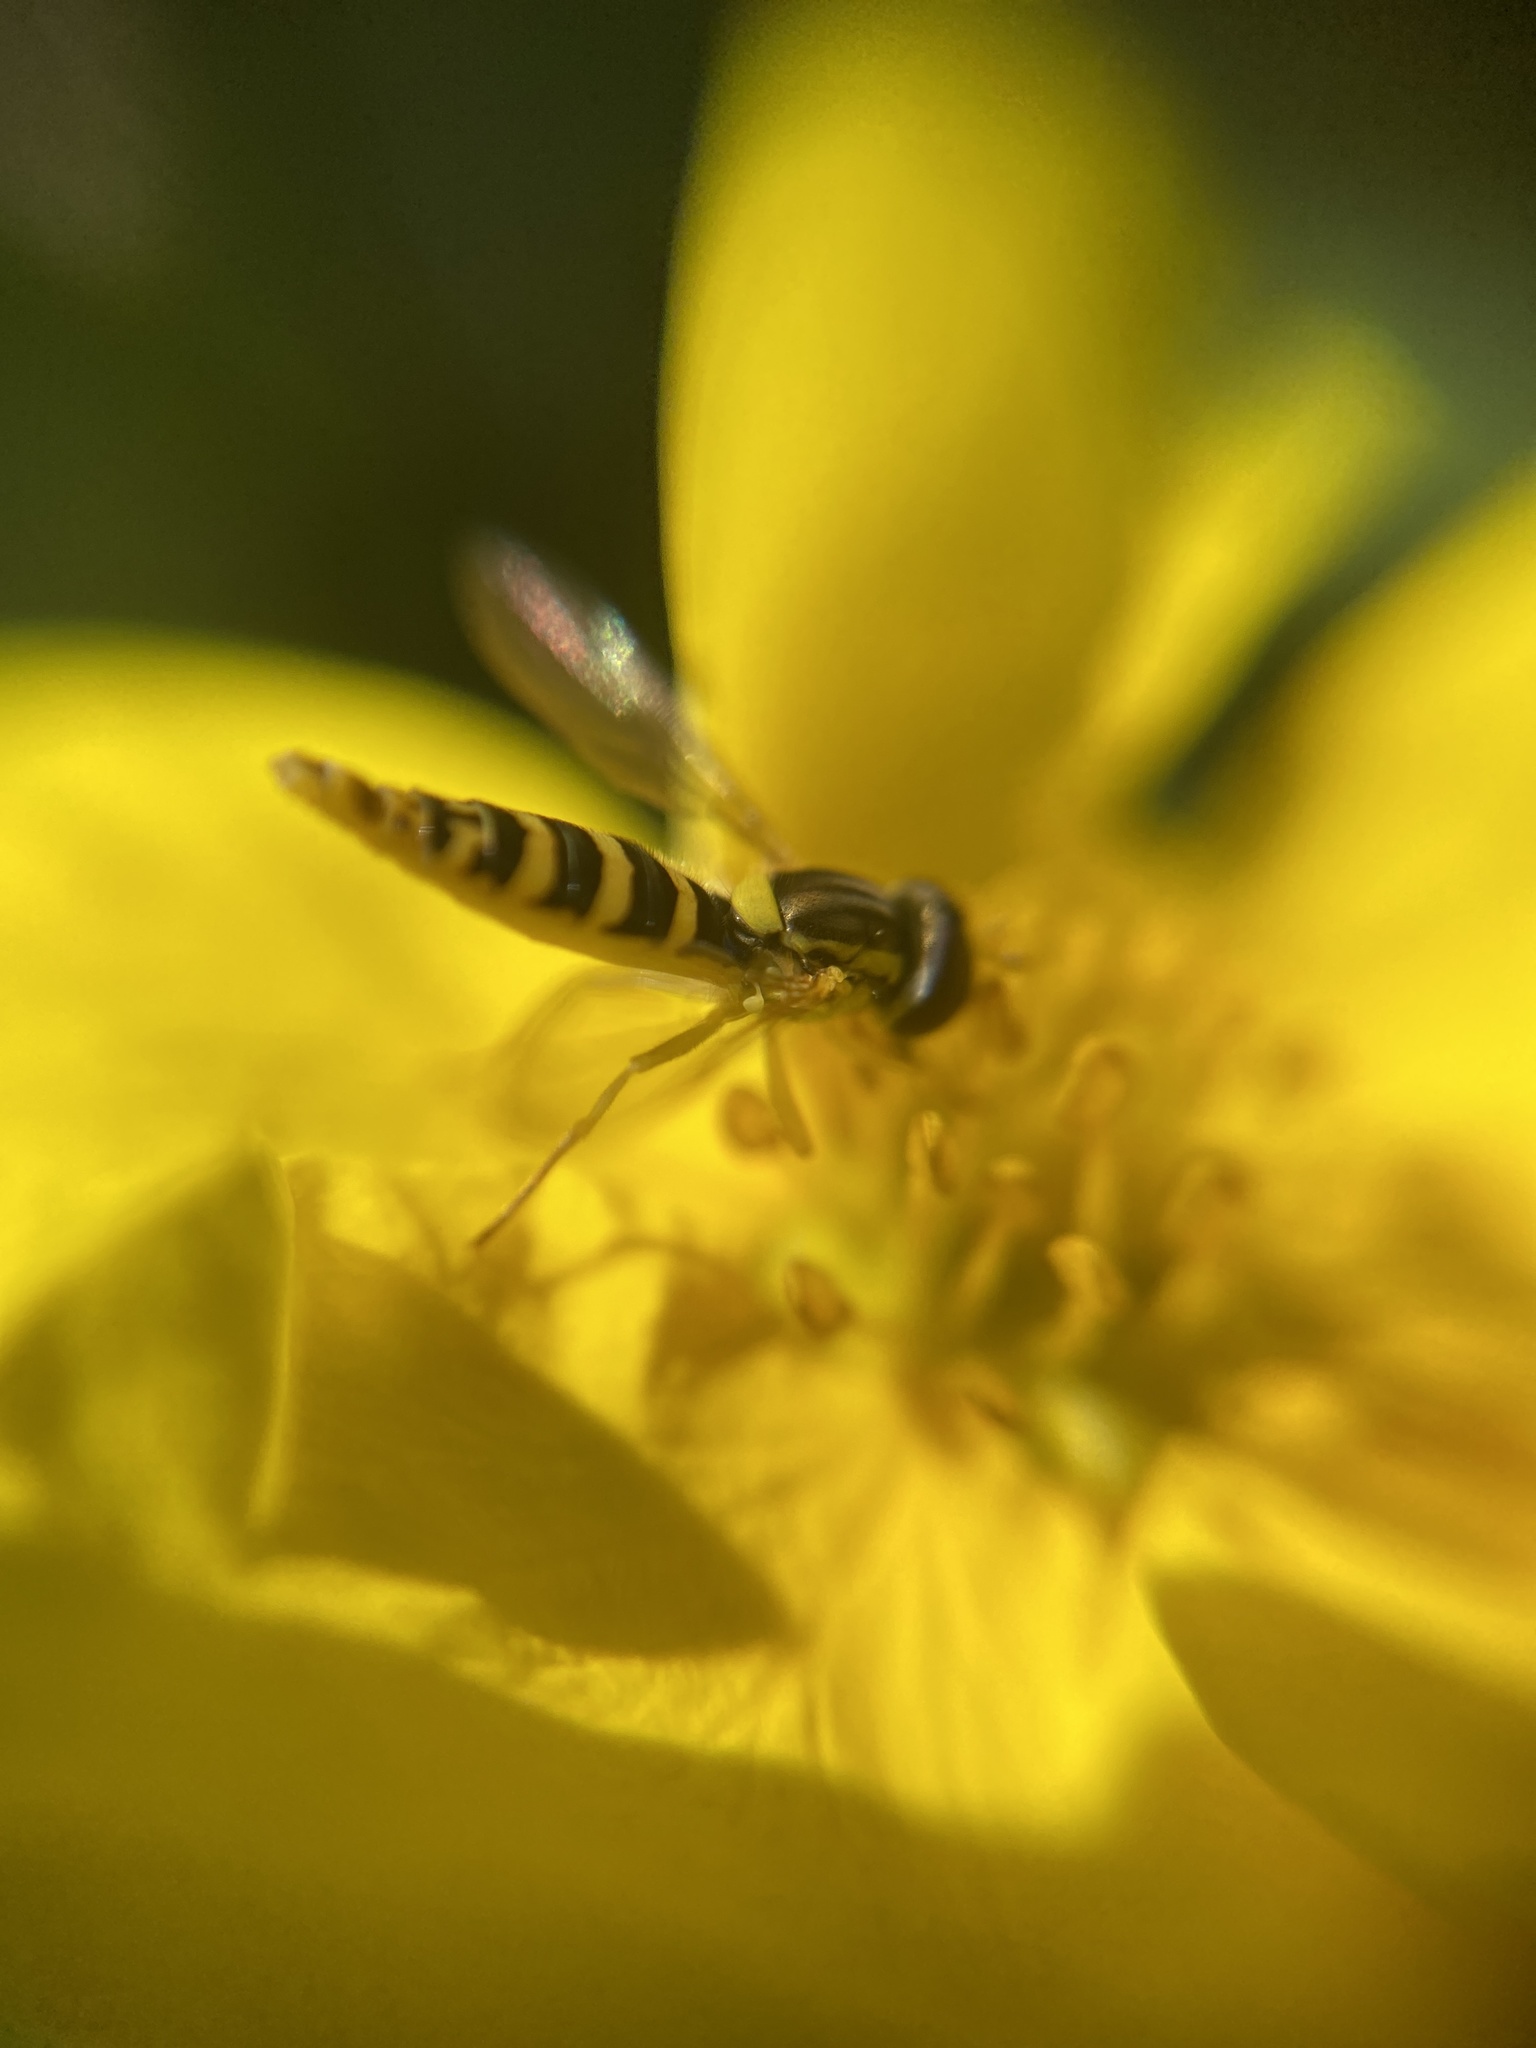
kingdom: Animalia
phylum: Arthropoda
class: Insecta
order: Diptera
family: Syrphidae
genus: Sphaerophoria
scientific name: Sphaerophoria
